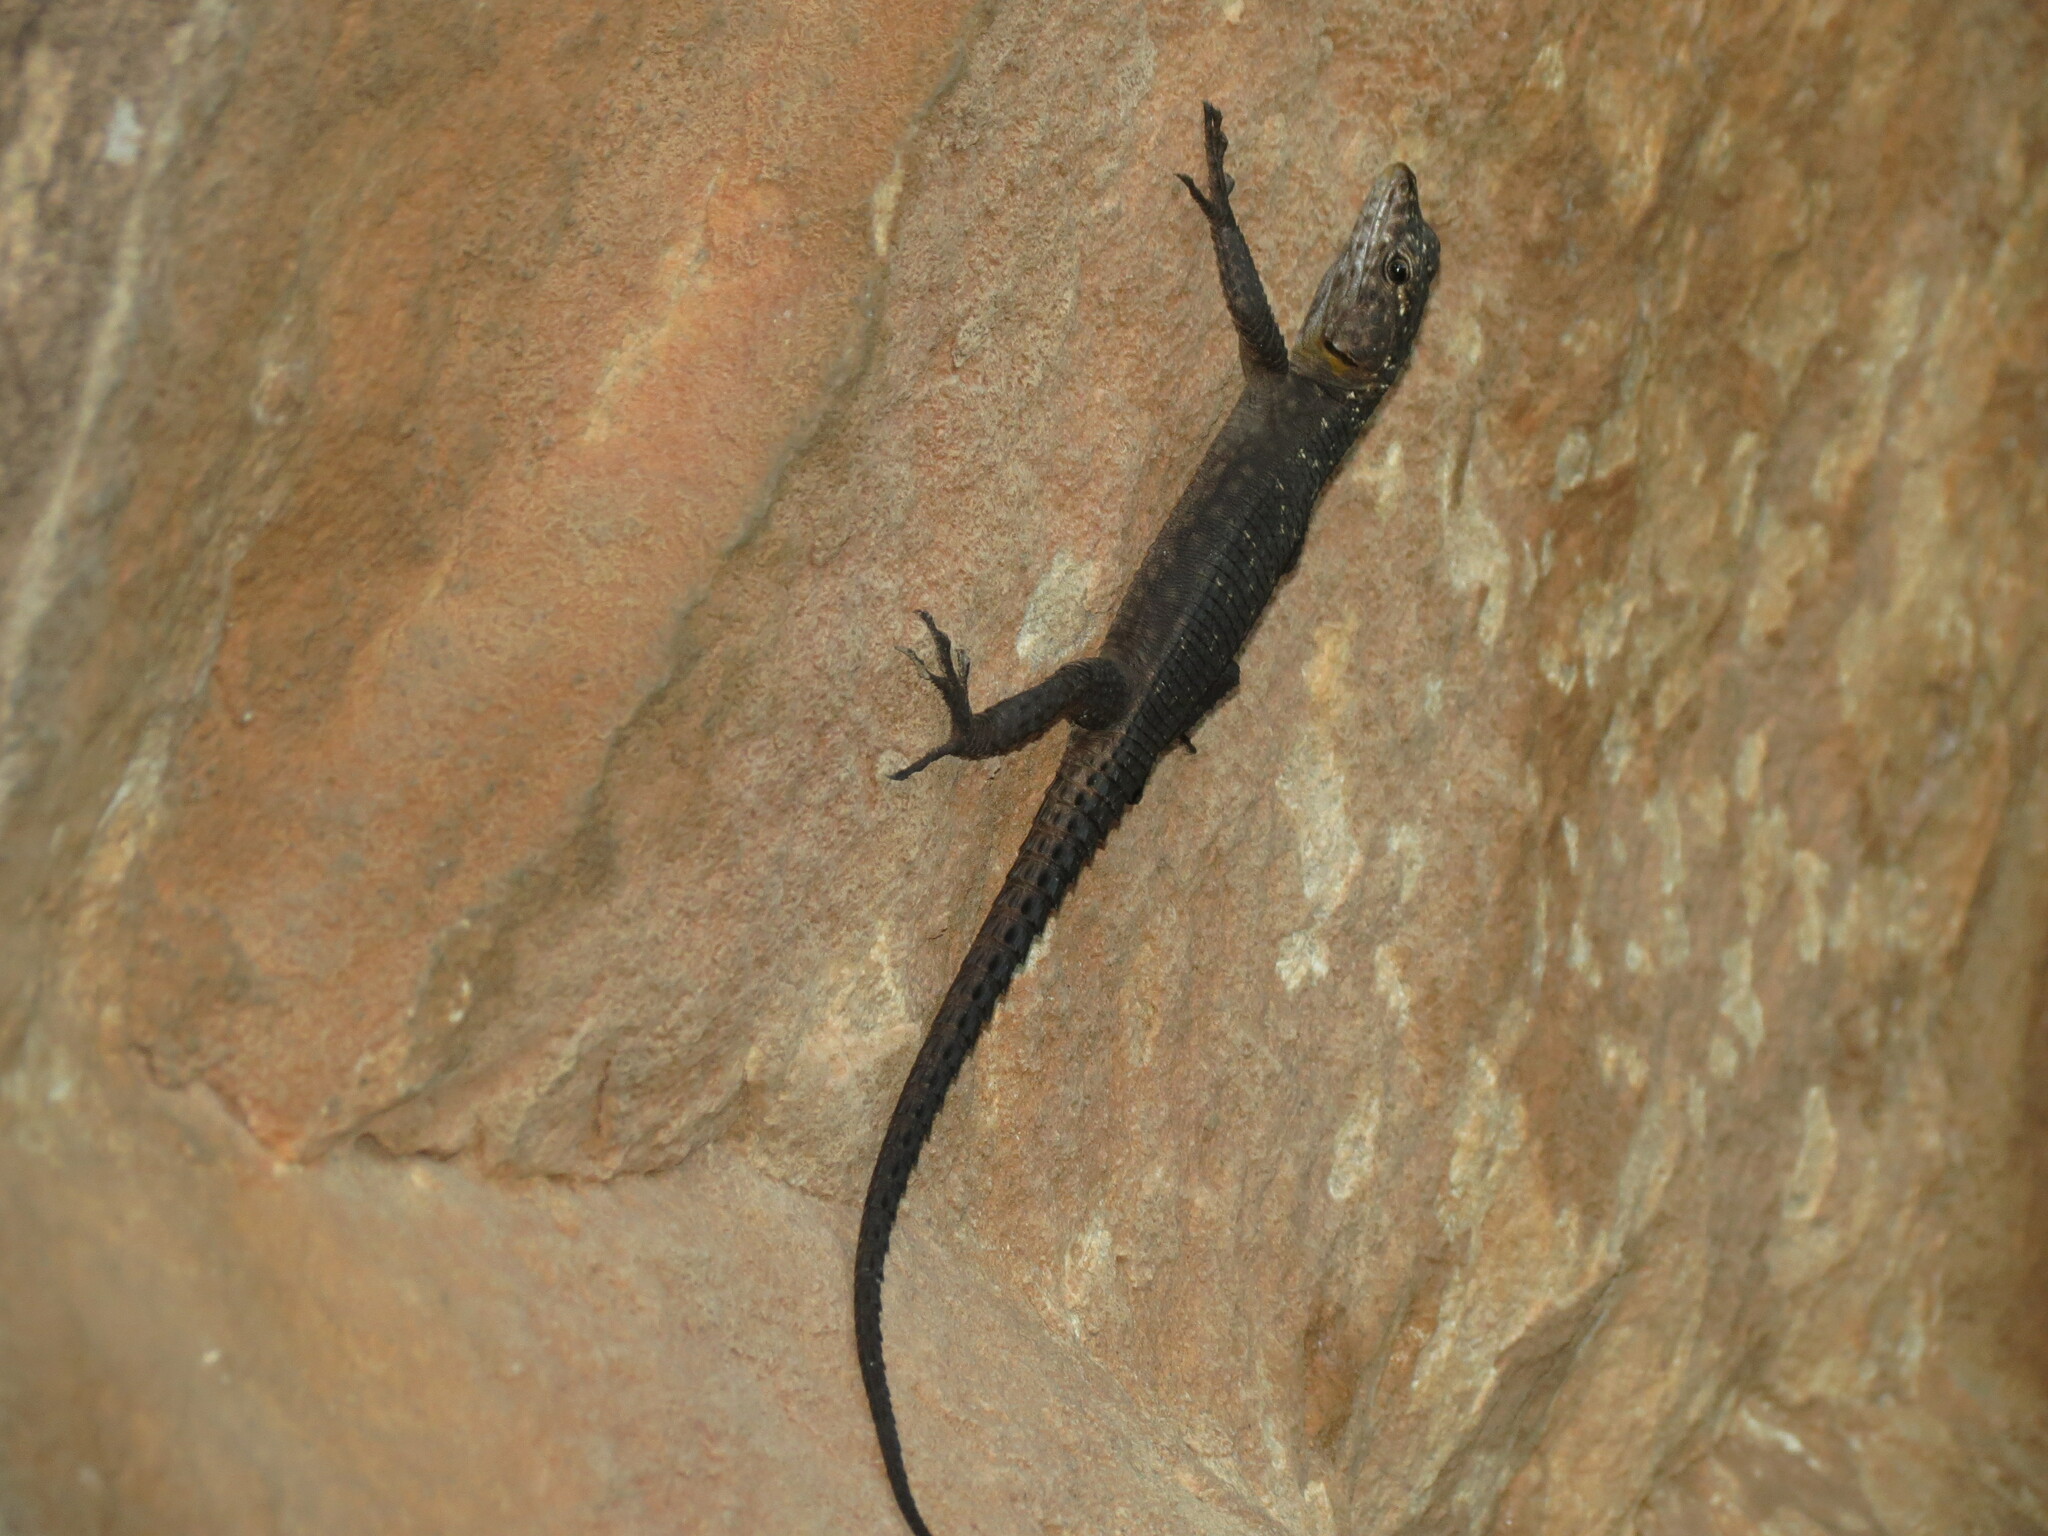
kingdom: Animalia
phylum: Chordata
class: Squamata
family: Cordylidae
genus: Hemicordylus
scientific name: Hemicordylus capensis
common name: Graceful crag lizard
